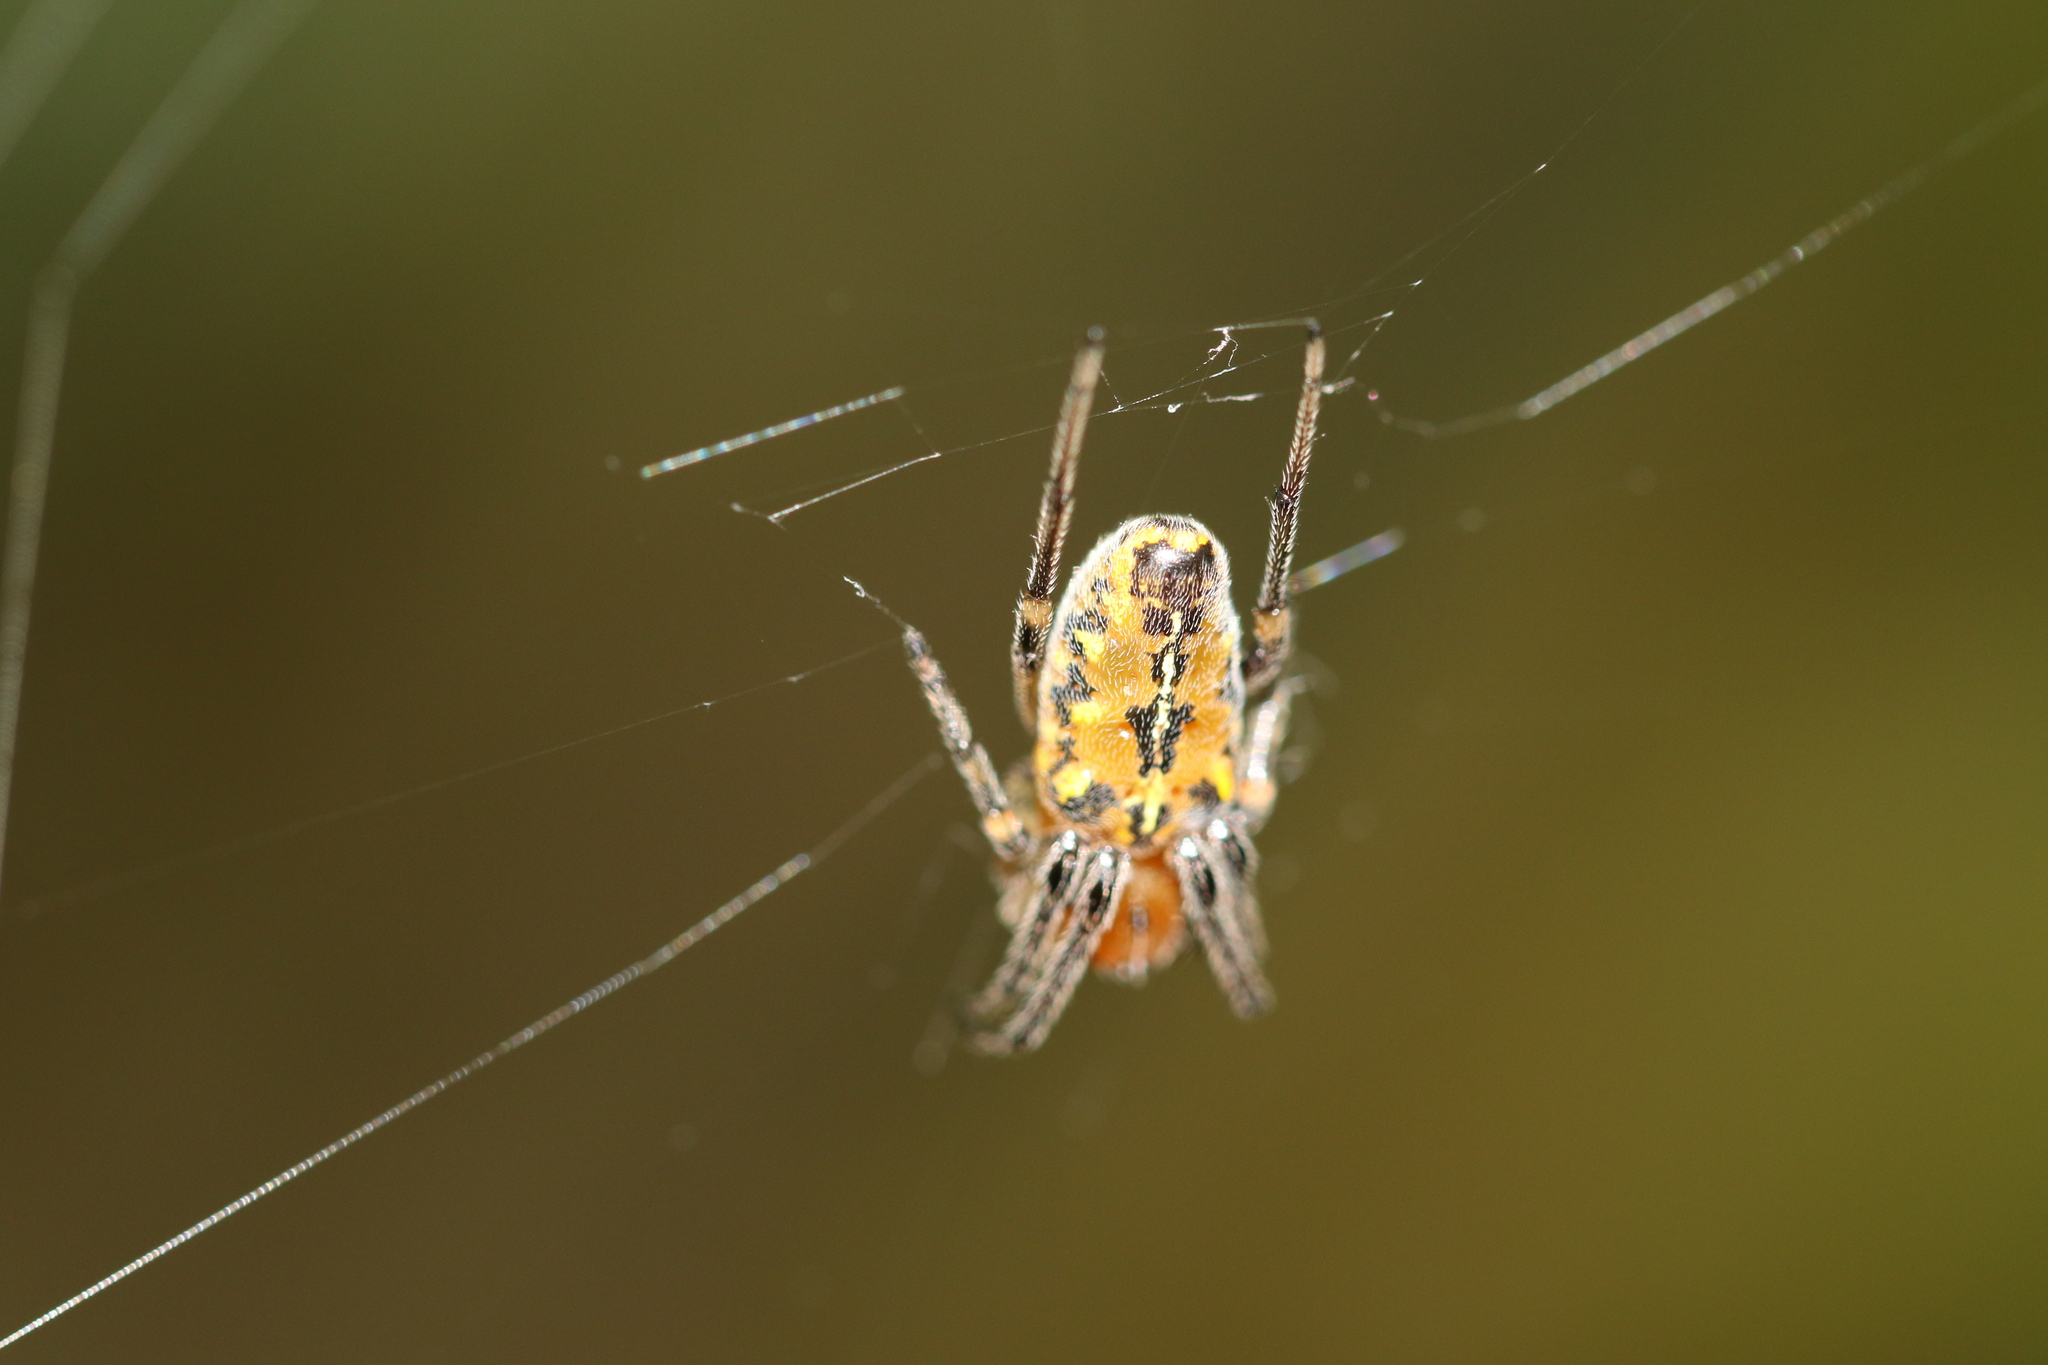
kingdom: Animalia
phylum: Arthropoda
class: Arachnida
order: Araneae
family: Araneidae
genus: Alpaida
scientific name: Alpaida scriba
